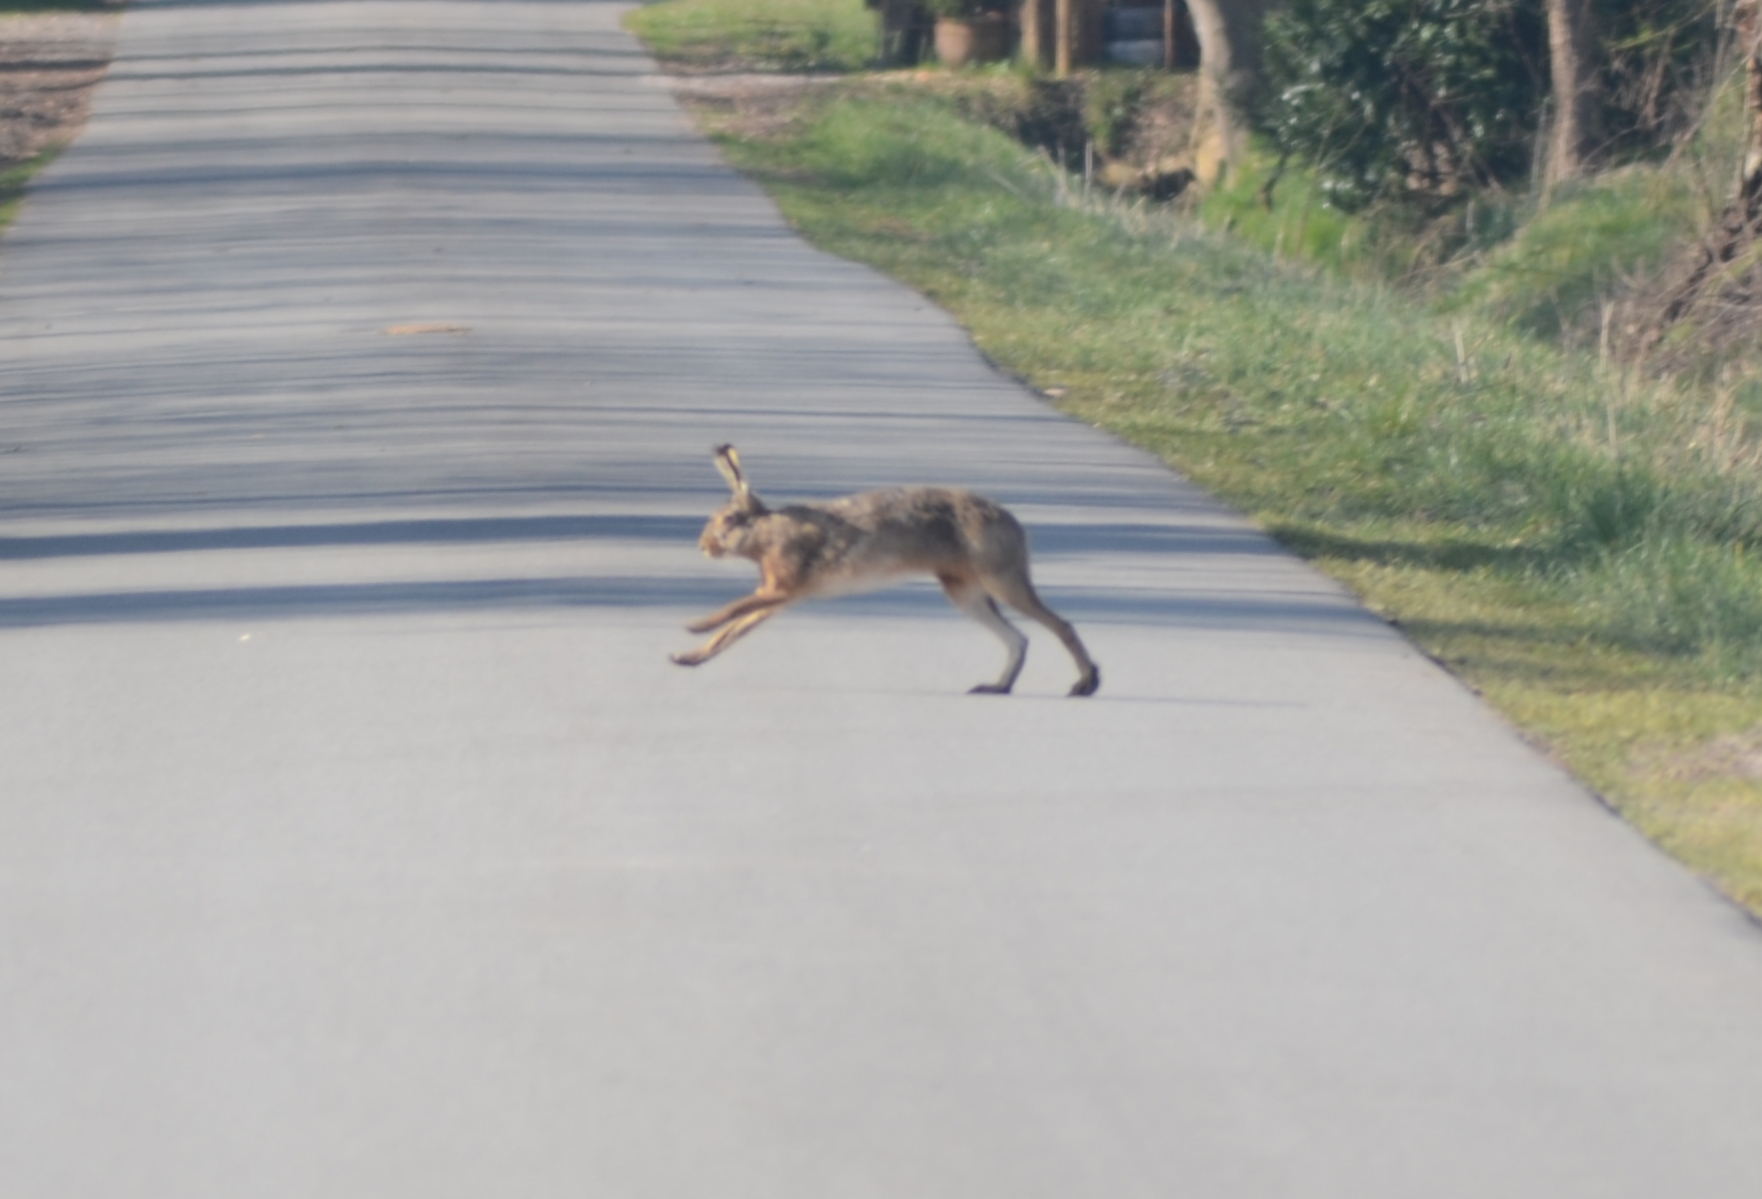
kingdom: Animalia
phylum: Chordata
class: Mammalia
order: Lagomorpha
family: Leporidae
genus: Lepus
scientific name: Lepus europaeus
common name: European hare
